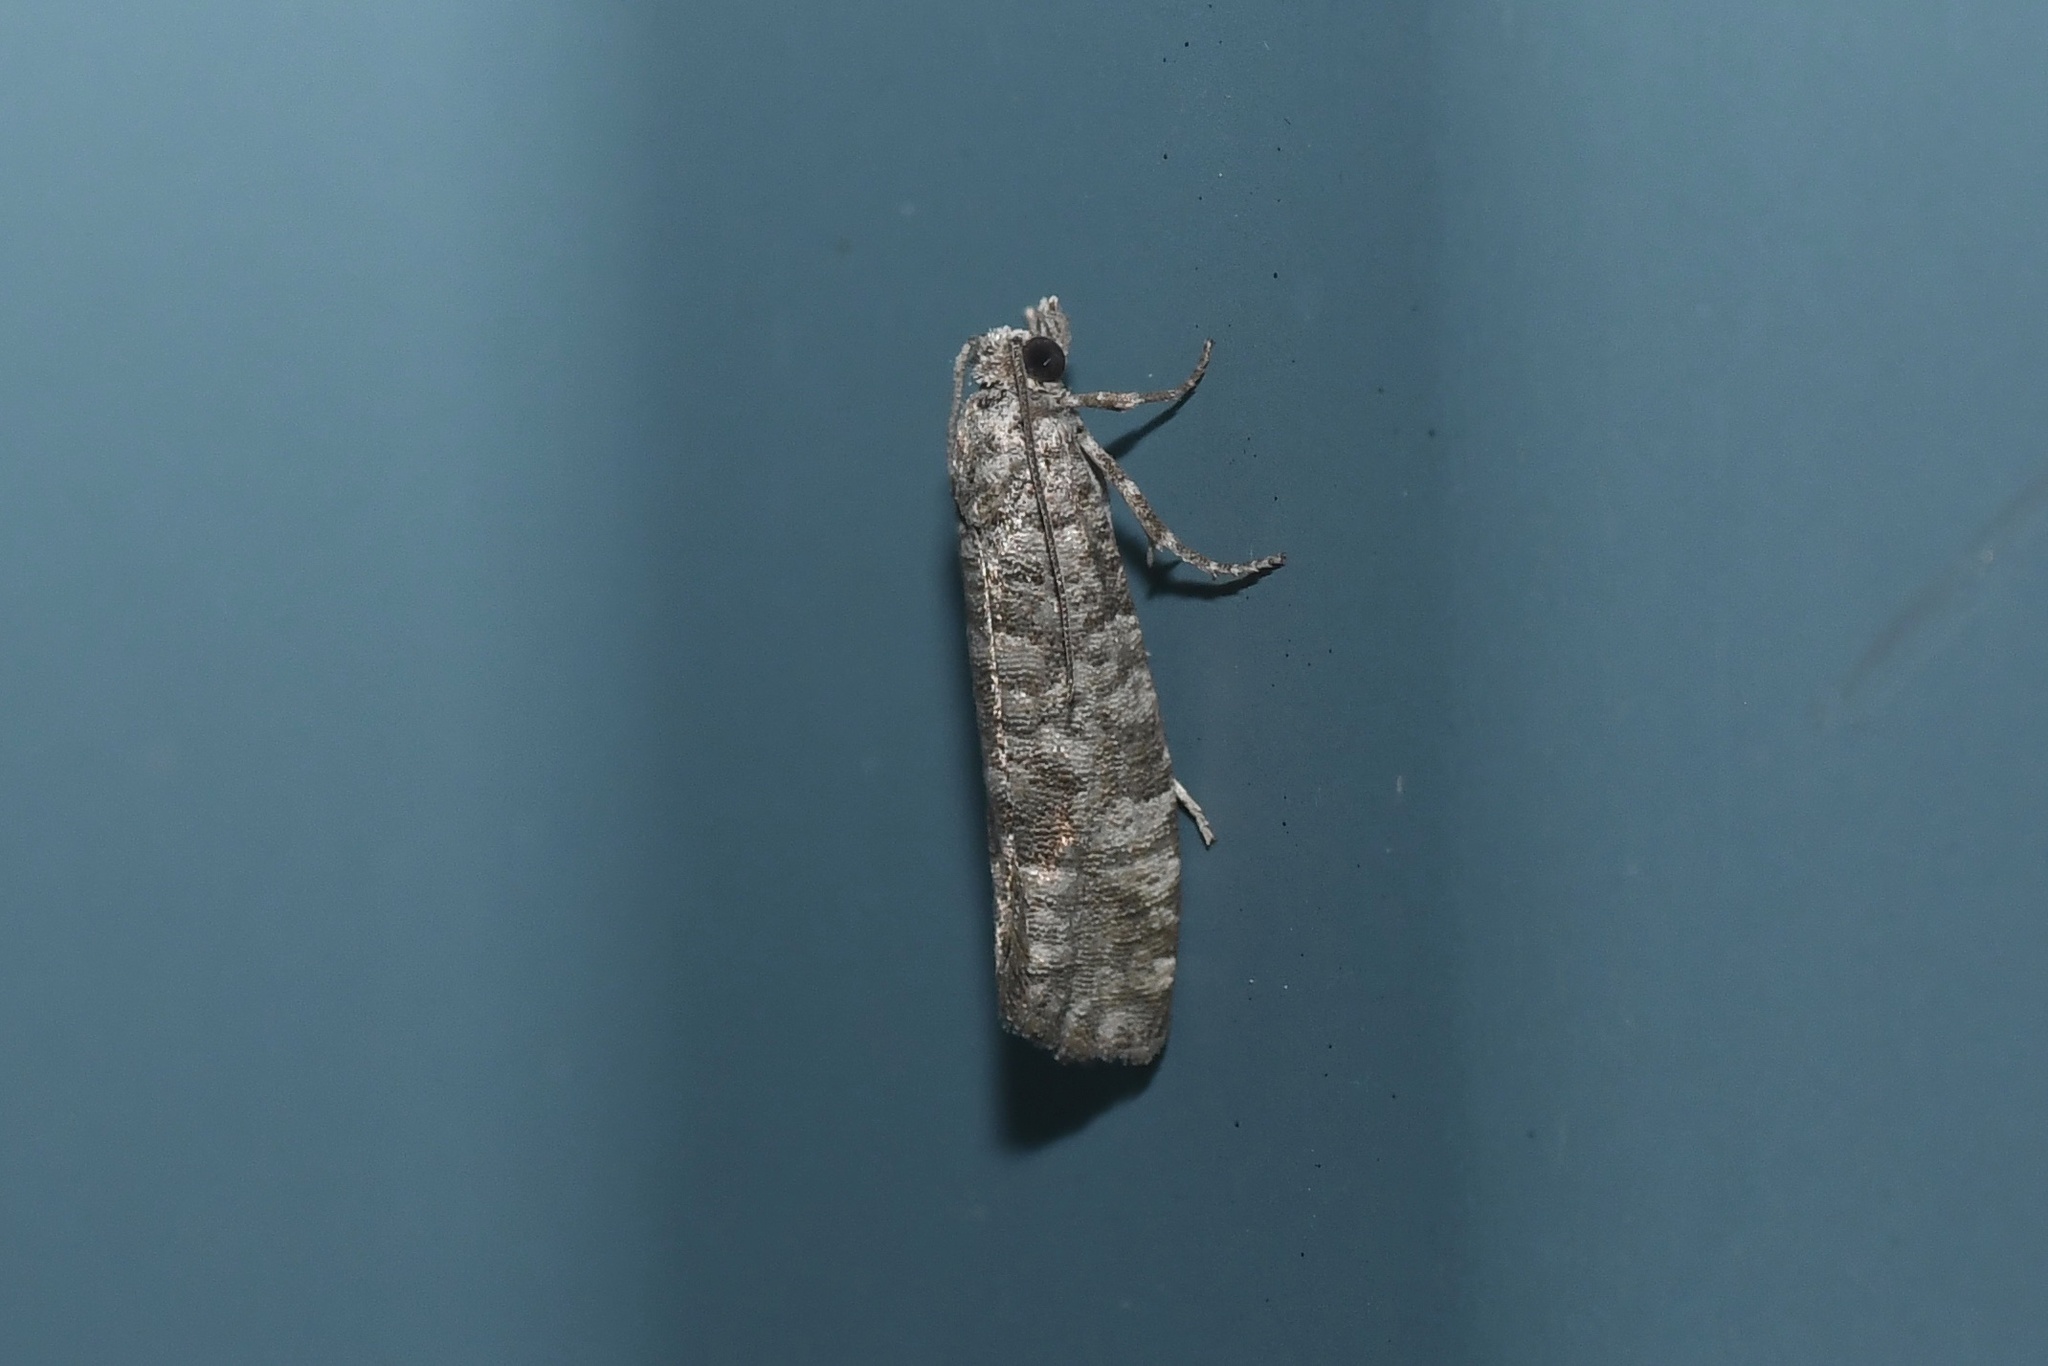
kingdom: Animalia
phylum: Arthropoda
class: Insecta
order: Lepidoptera
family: Tortricidae
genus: Retinia
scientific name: Retinia gemistrigulana
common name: Gray retinia moth
